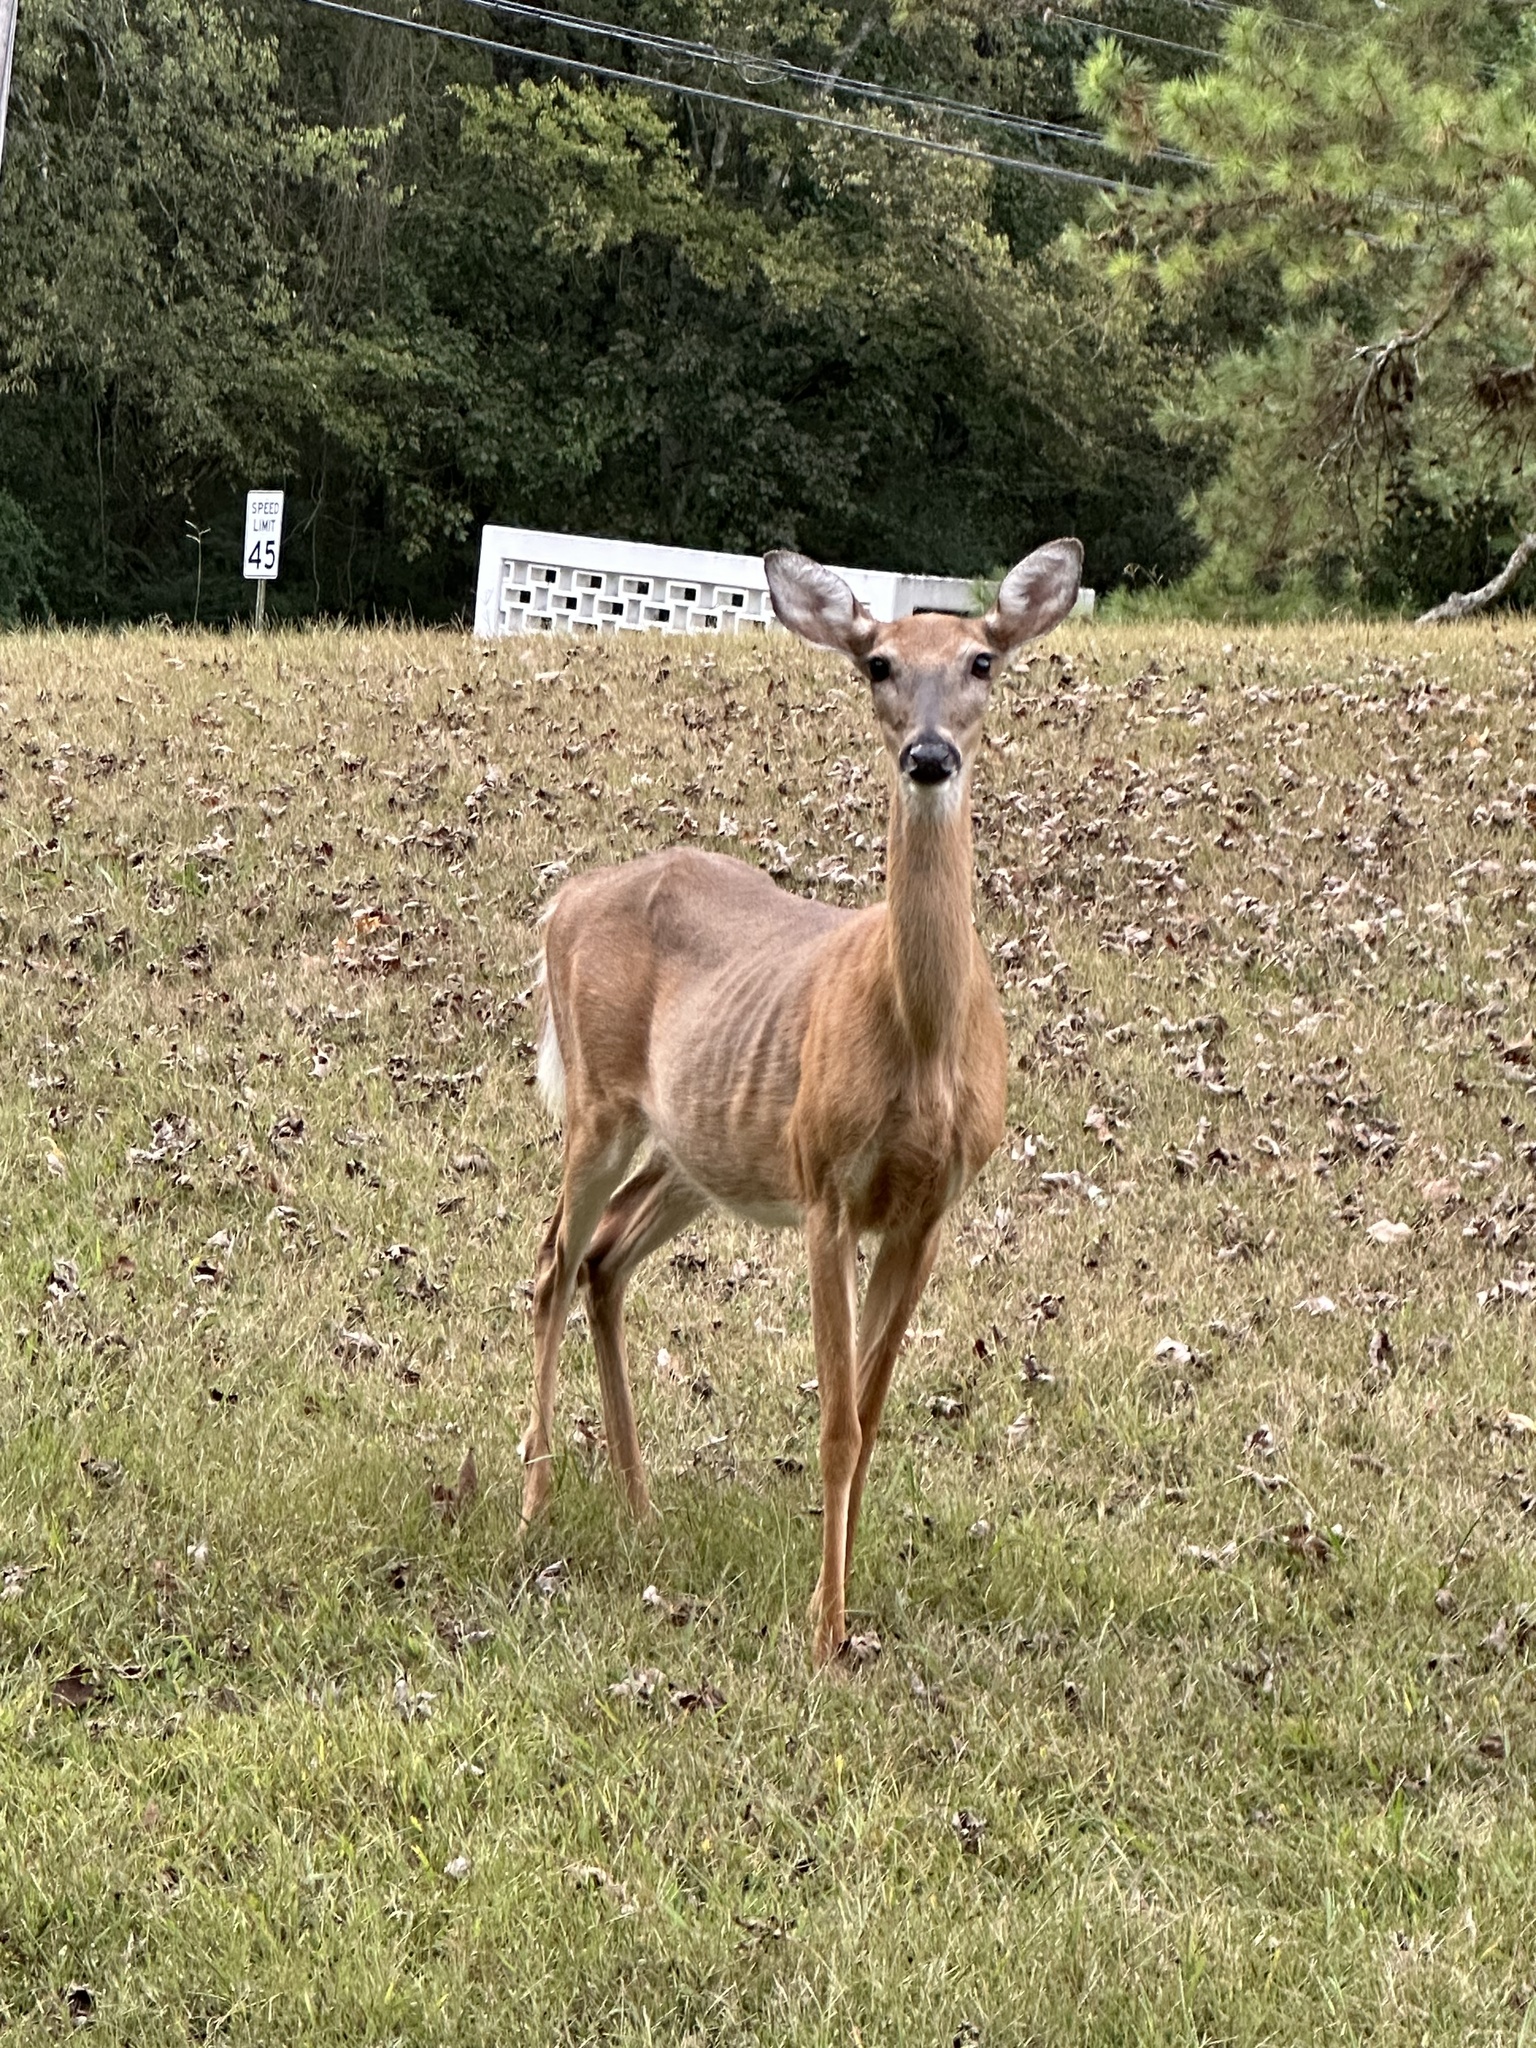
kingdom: Animalia
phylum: Chordata
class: Mammalia
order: Artiodactyla
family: Cervidae
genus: Odocoileus
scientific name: Odocoileus virginianus
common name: White-tailed deer
